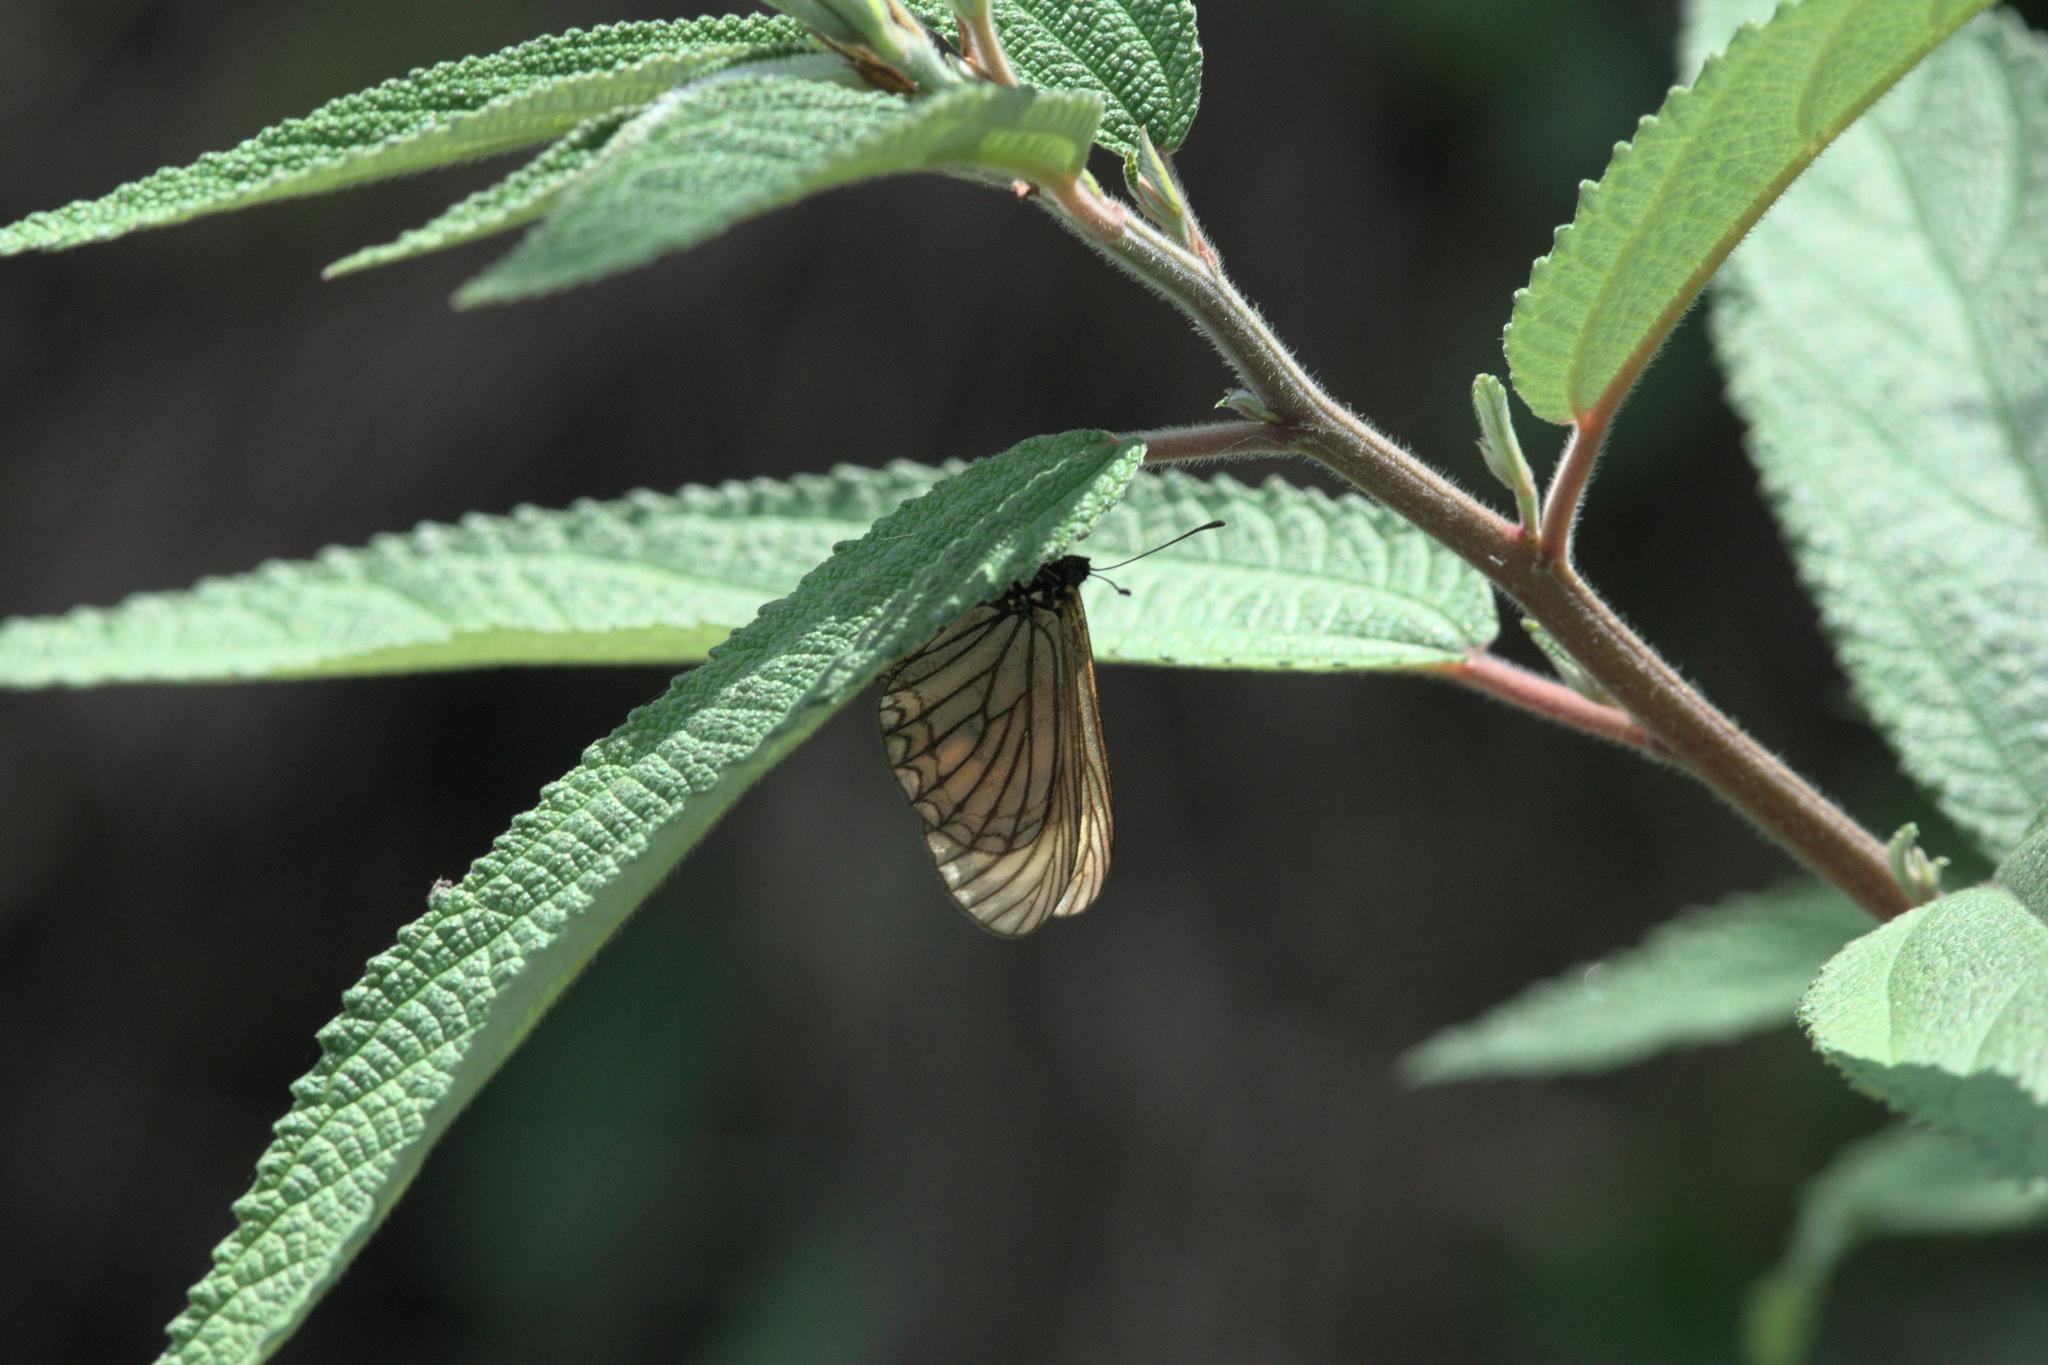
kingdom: Animalia
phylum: Arthropoda
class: Insecta
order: Lepidoptera
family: Nymphalidae
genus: Acraea
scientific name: Acraea Telchinia issoria
